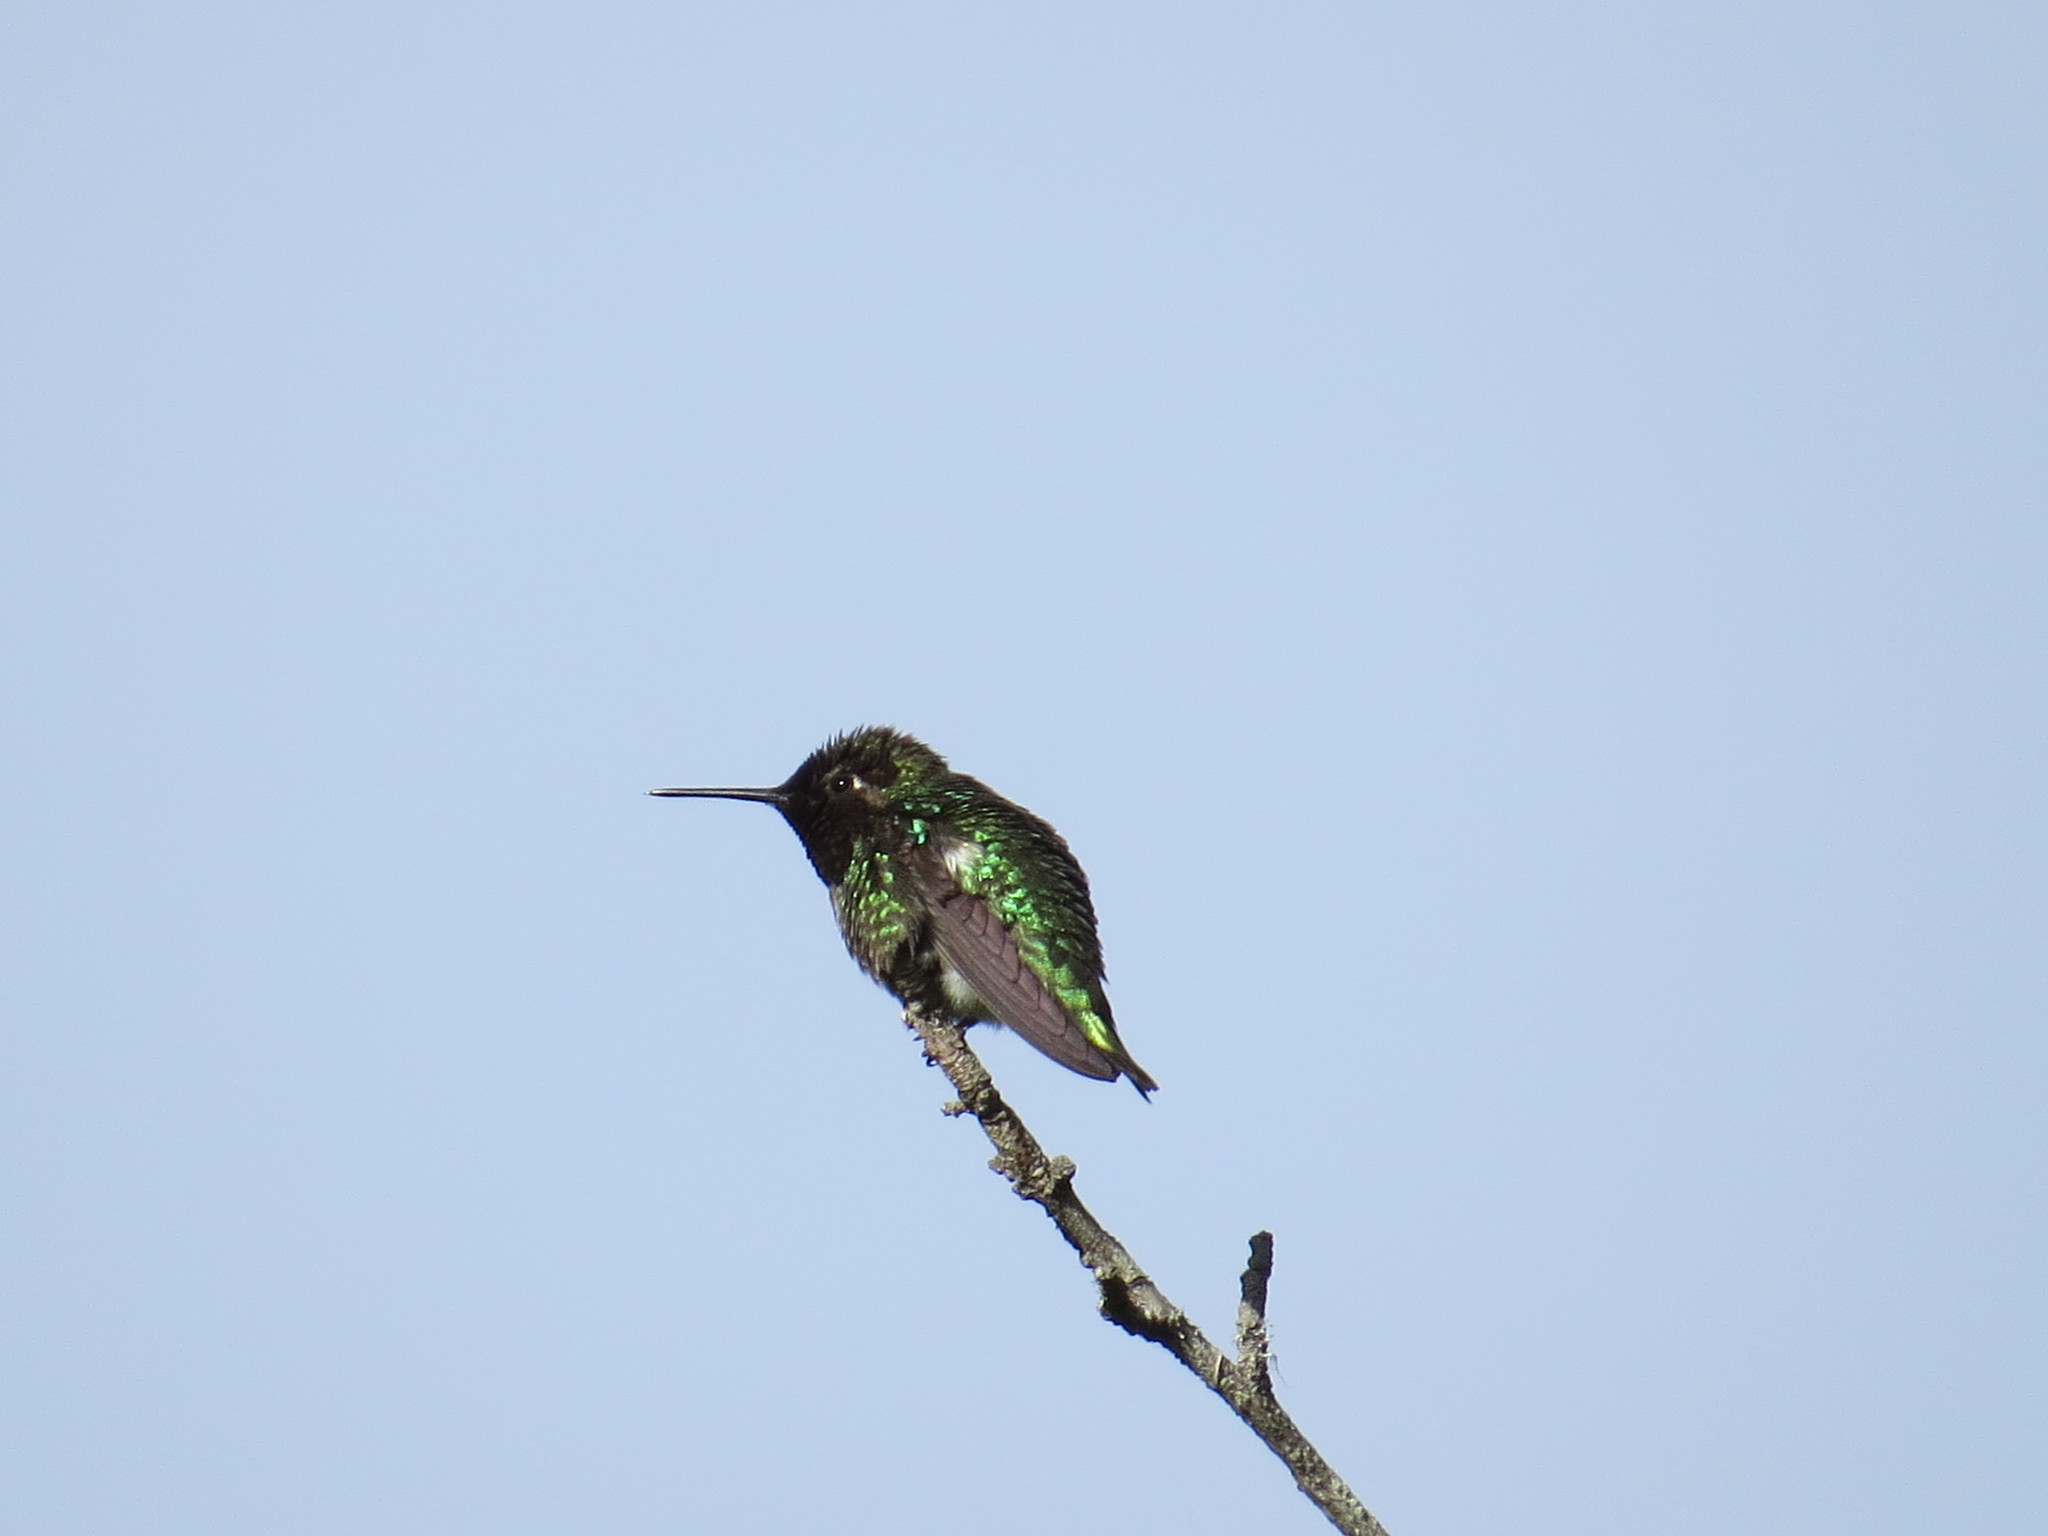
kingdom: Animalia
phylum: Chordata
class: Aves
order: Apodiformes
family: Trochilidae
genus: Calypte
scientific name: Calypte anna
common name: Anna's hummingbird
